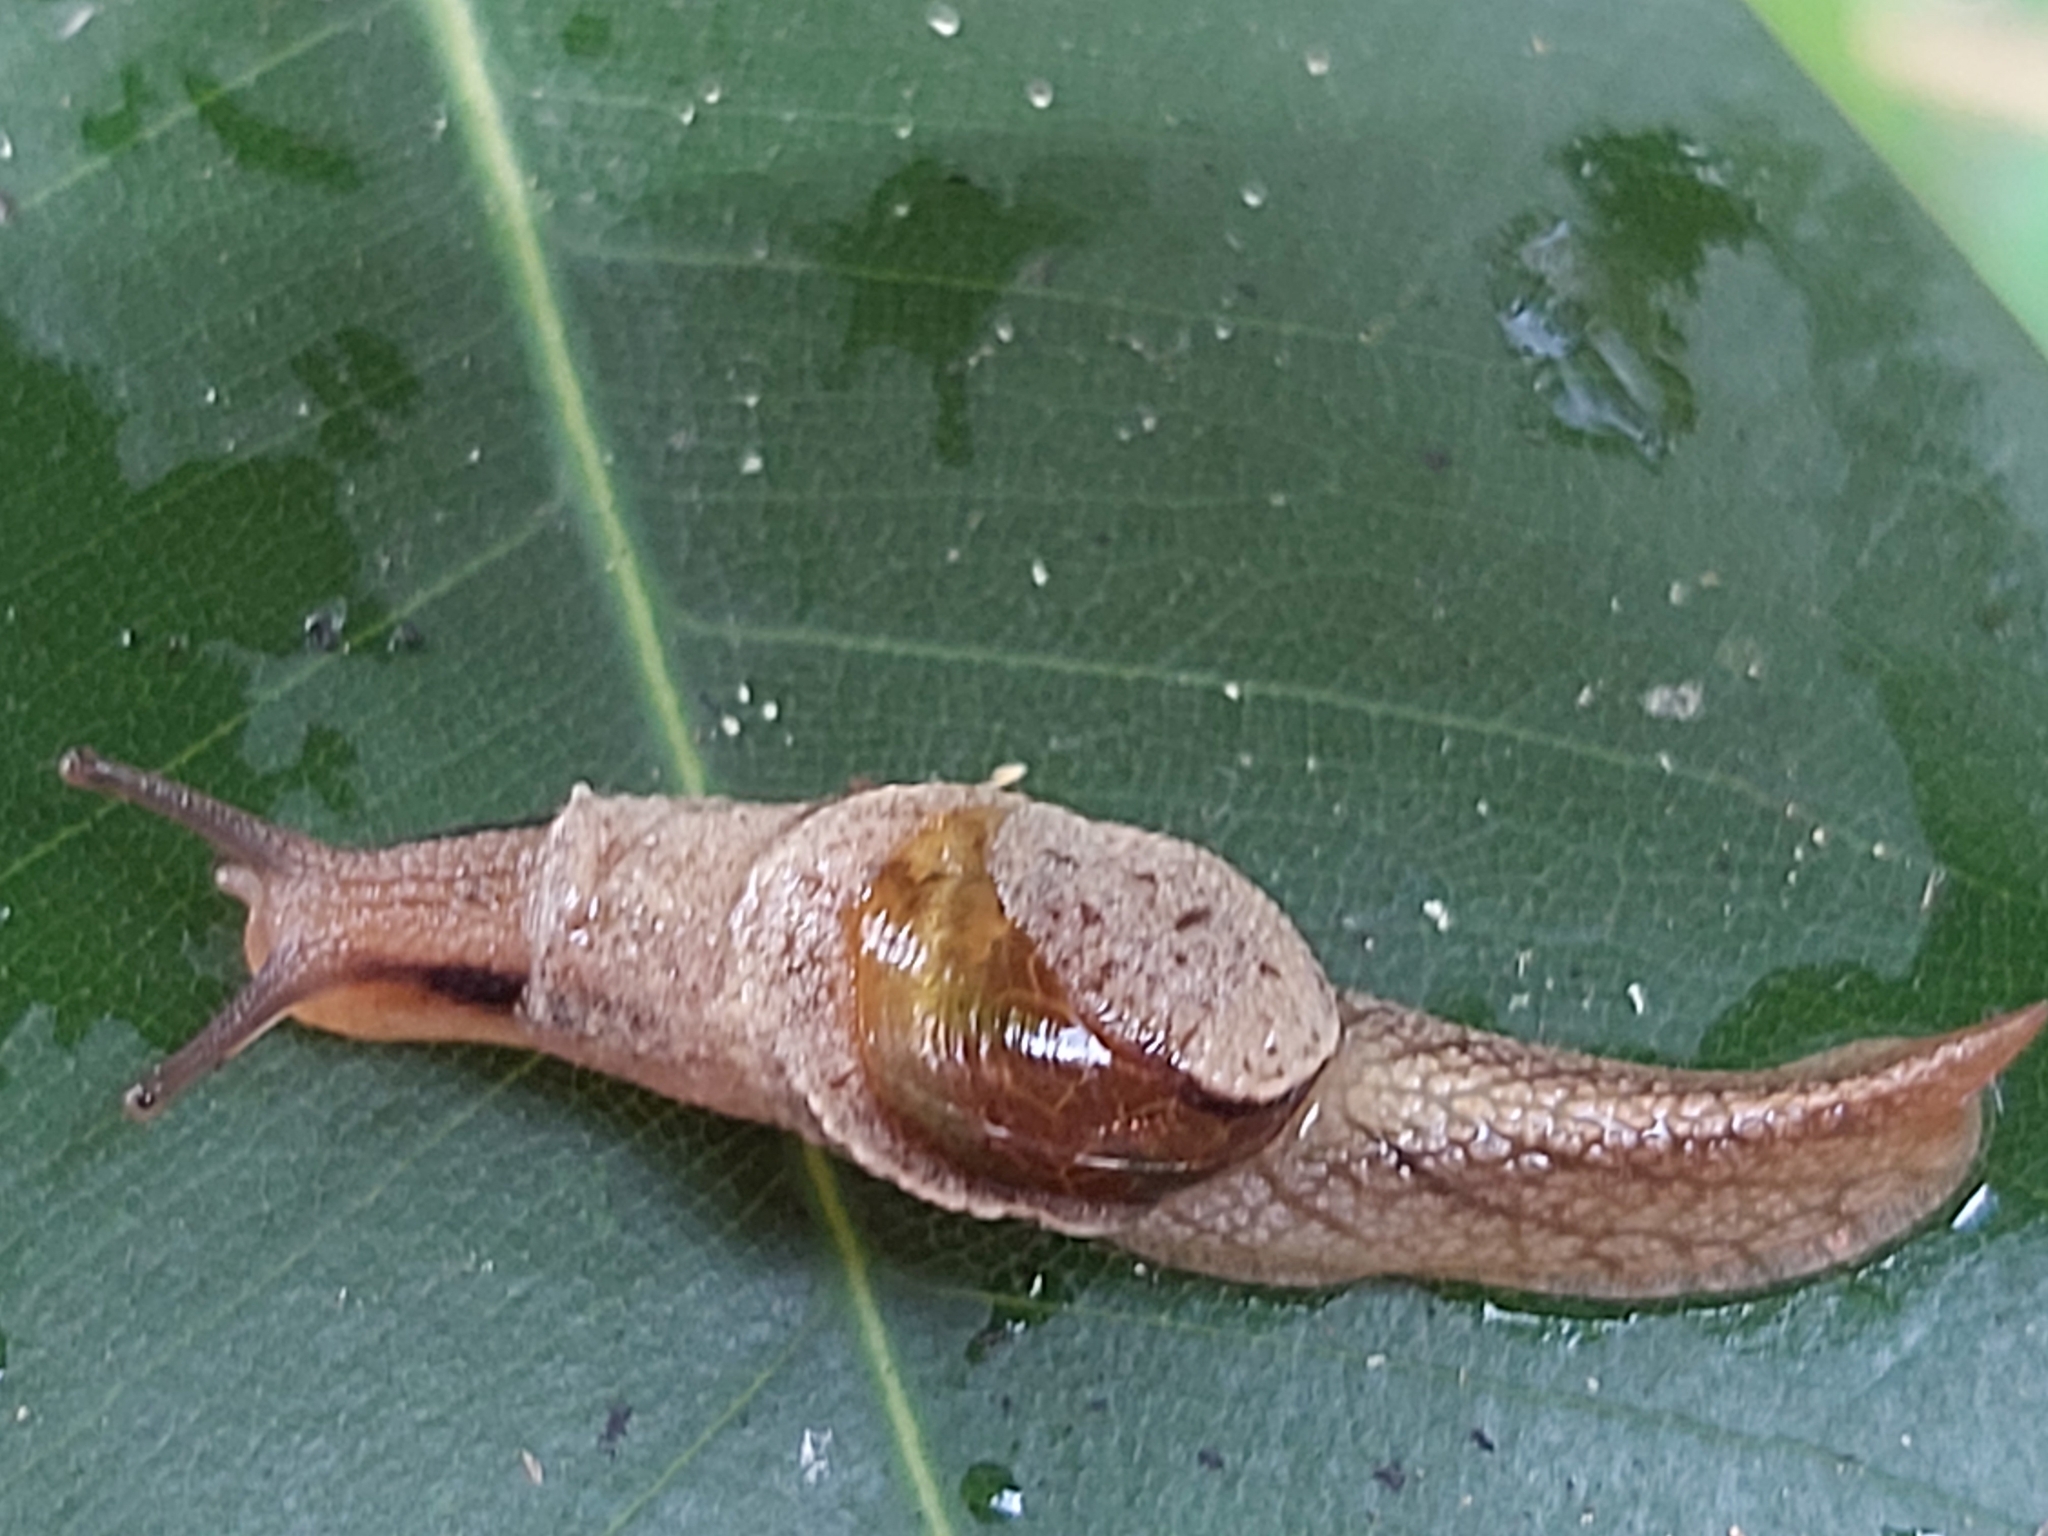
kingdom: Animalia
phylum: Mollusca
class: Gastropoda
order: Stylommatophora
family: Helicarionidae
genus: Ubiquitarion
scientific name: Ubiquitarion iridis
